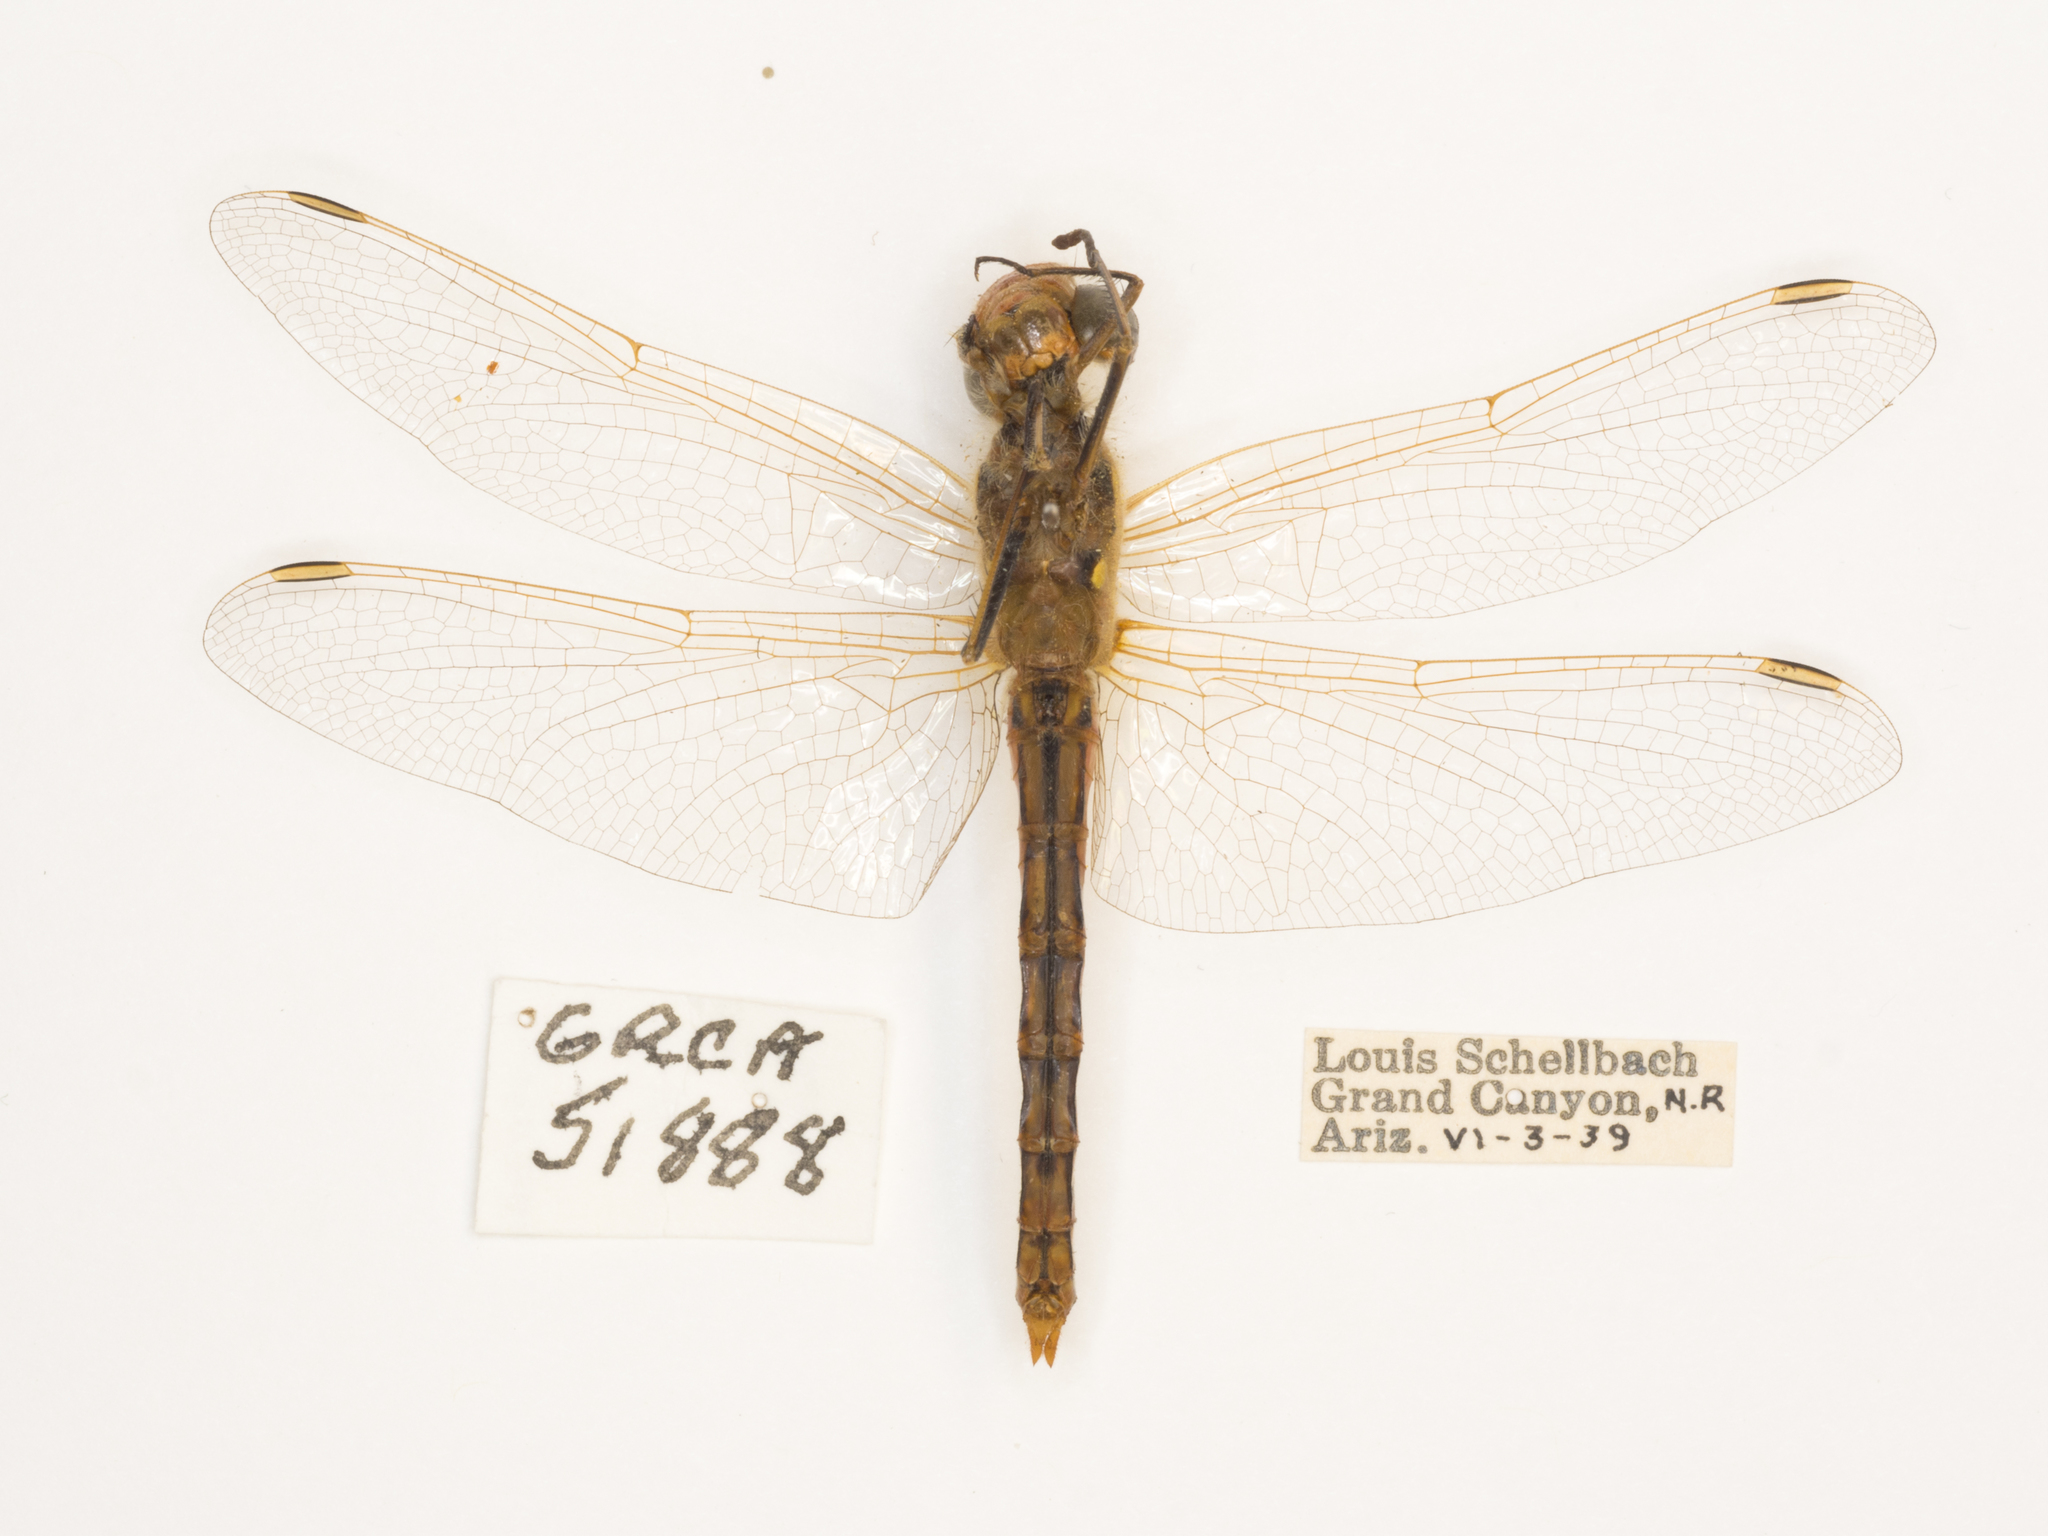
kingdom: Animalia
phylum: Arthropoda
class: Insecta
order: Odonata
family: Libellulidae
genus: Sympetrum
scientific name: Sympetrum corruptum
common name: Variegated meadowhawk
